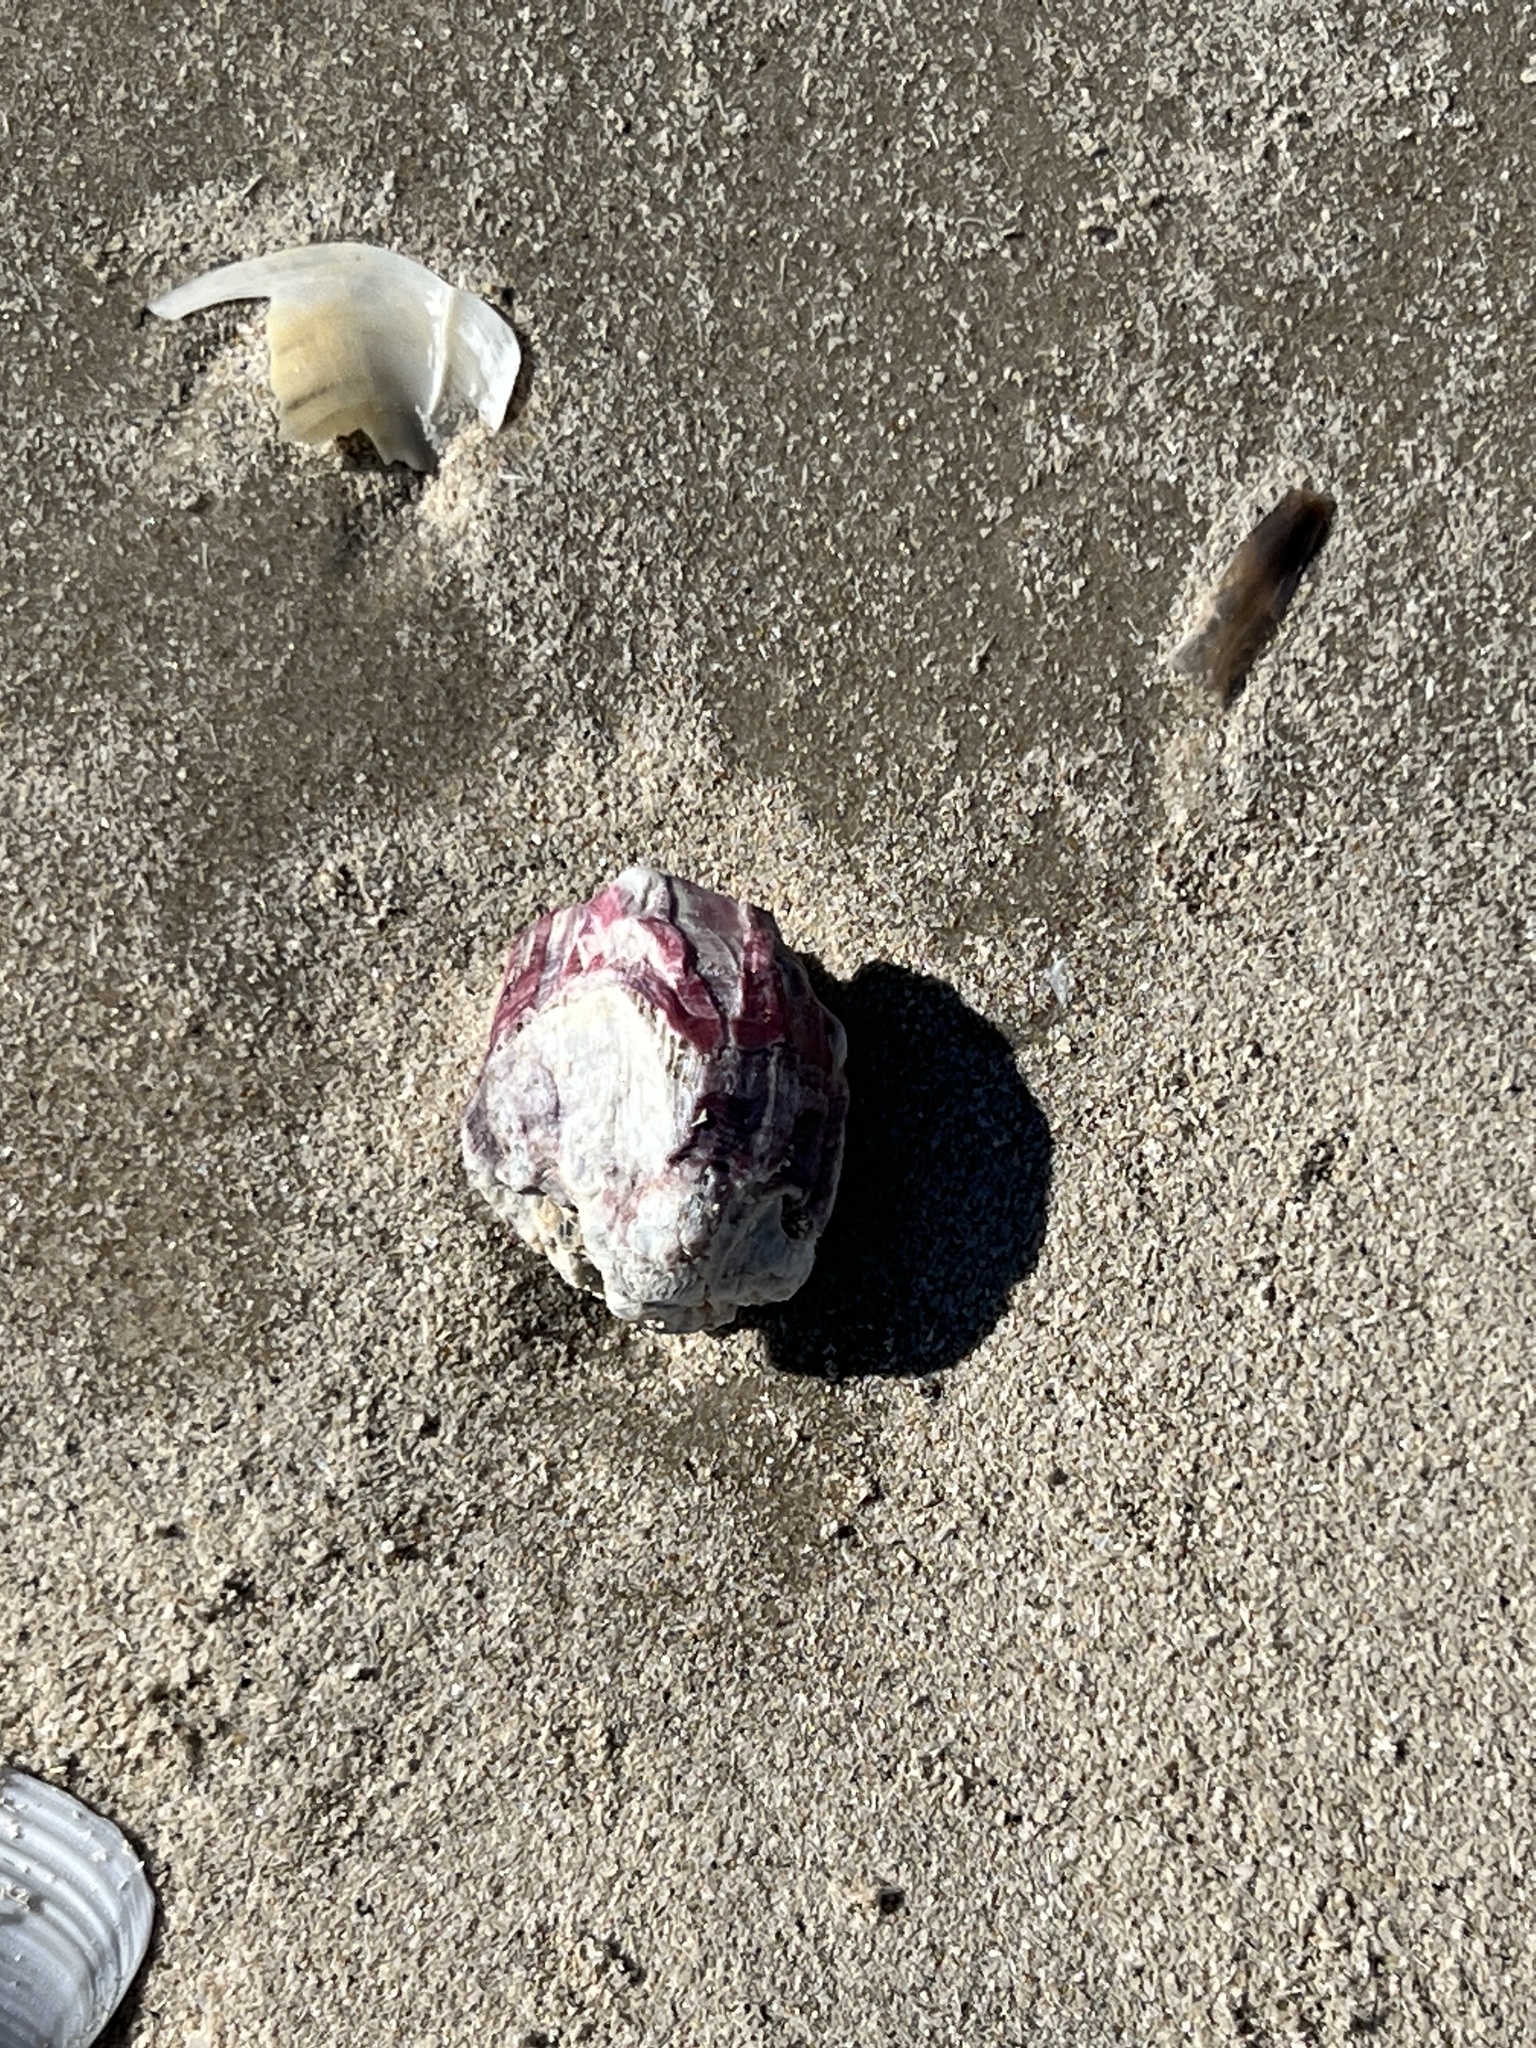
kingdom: Animalia
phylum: Arthropoda
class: Maxillopoda
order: Sessilia
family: Balanidae
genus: Megabalanus
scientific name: Megabalanus tintinnabulum
